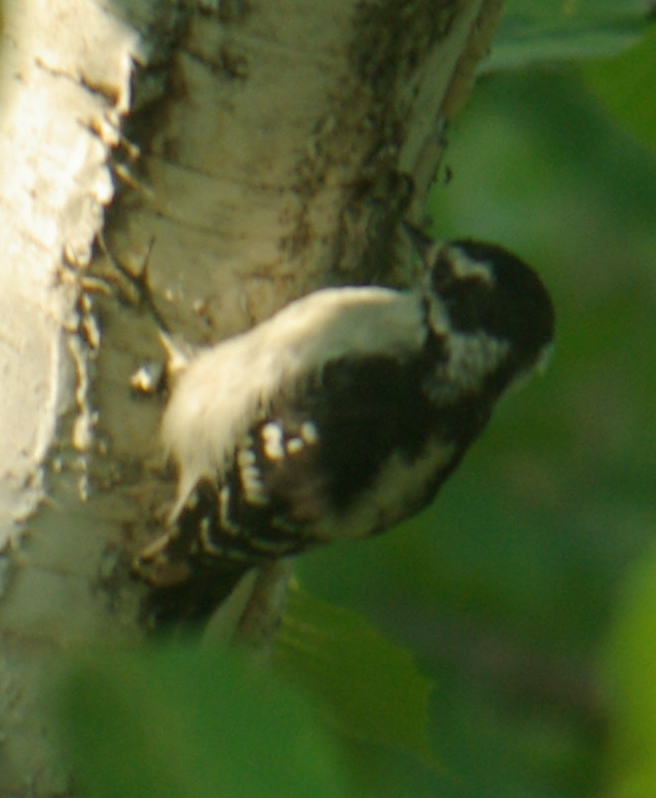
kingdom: Animalia
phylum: Chordata
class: Aves
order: Piciformes
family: Picidae
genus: Dryobates
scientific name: Dryobates pubescens
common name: Downy woodpecker
